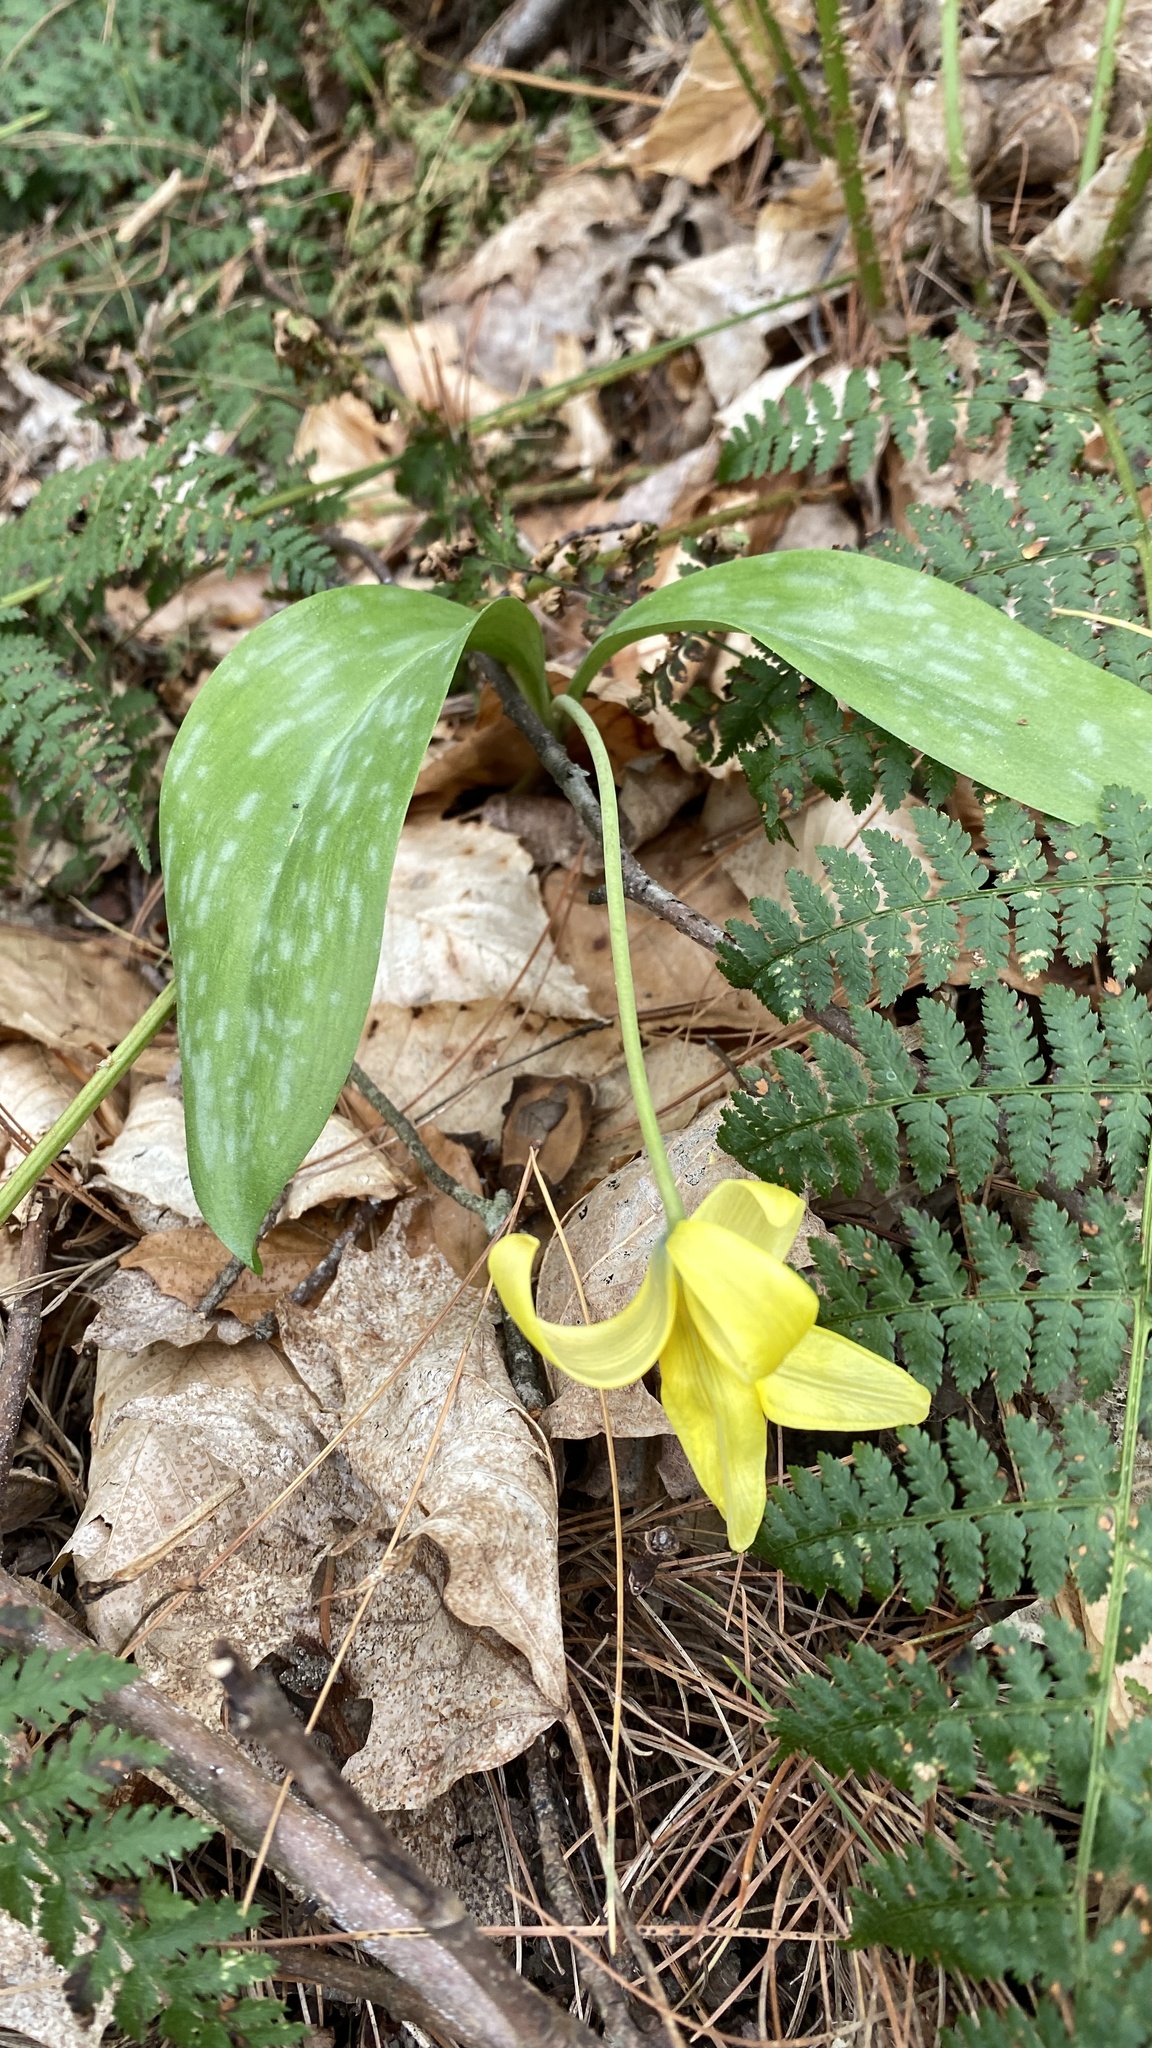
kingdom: Plantae
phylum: Tracheophyta
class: Liliopsida
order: Liliales
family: Liliaceae
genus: Erythronium
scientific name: Erythronium americanum
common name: Yellow adder's-tongue
